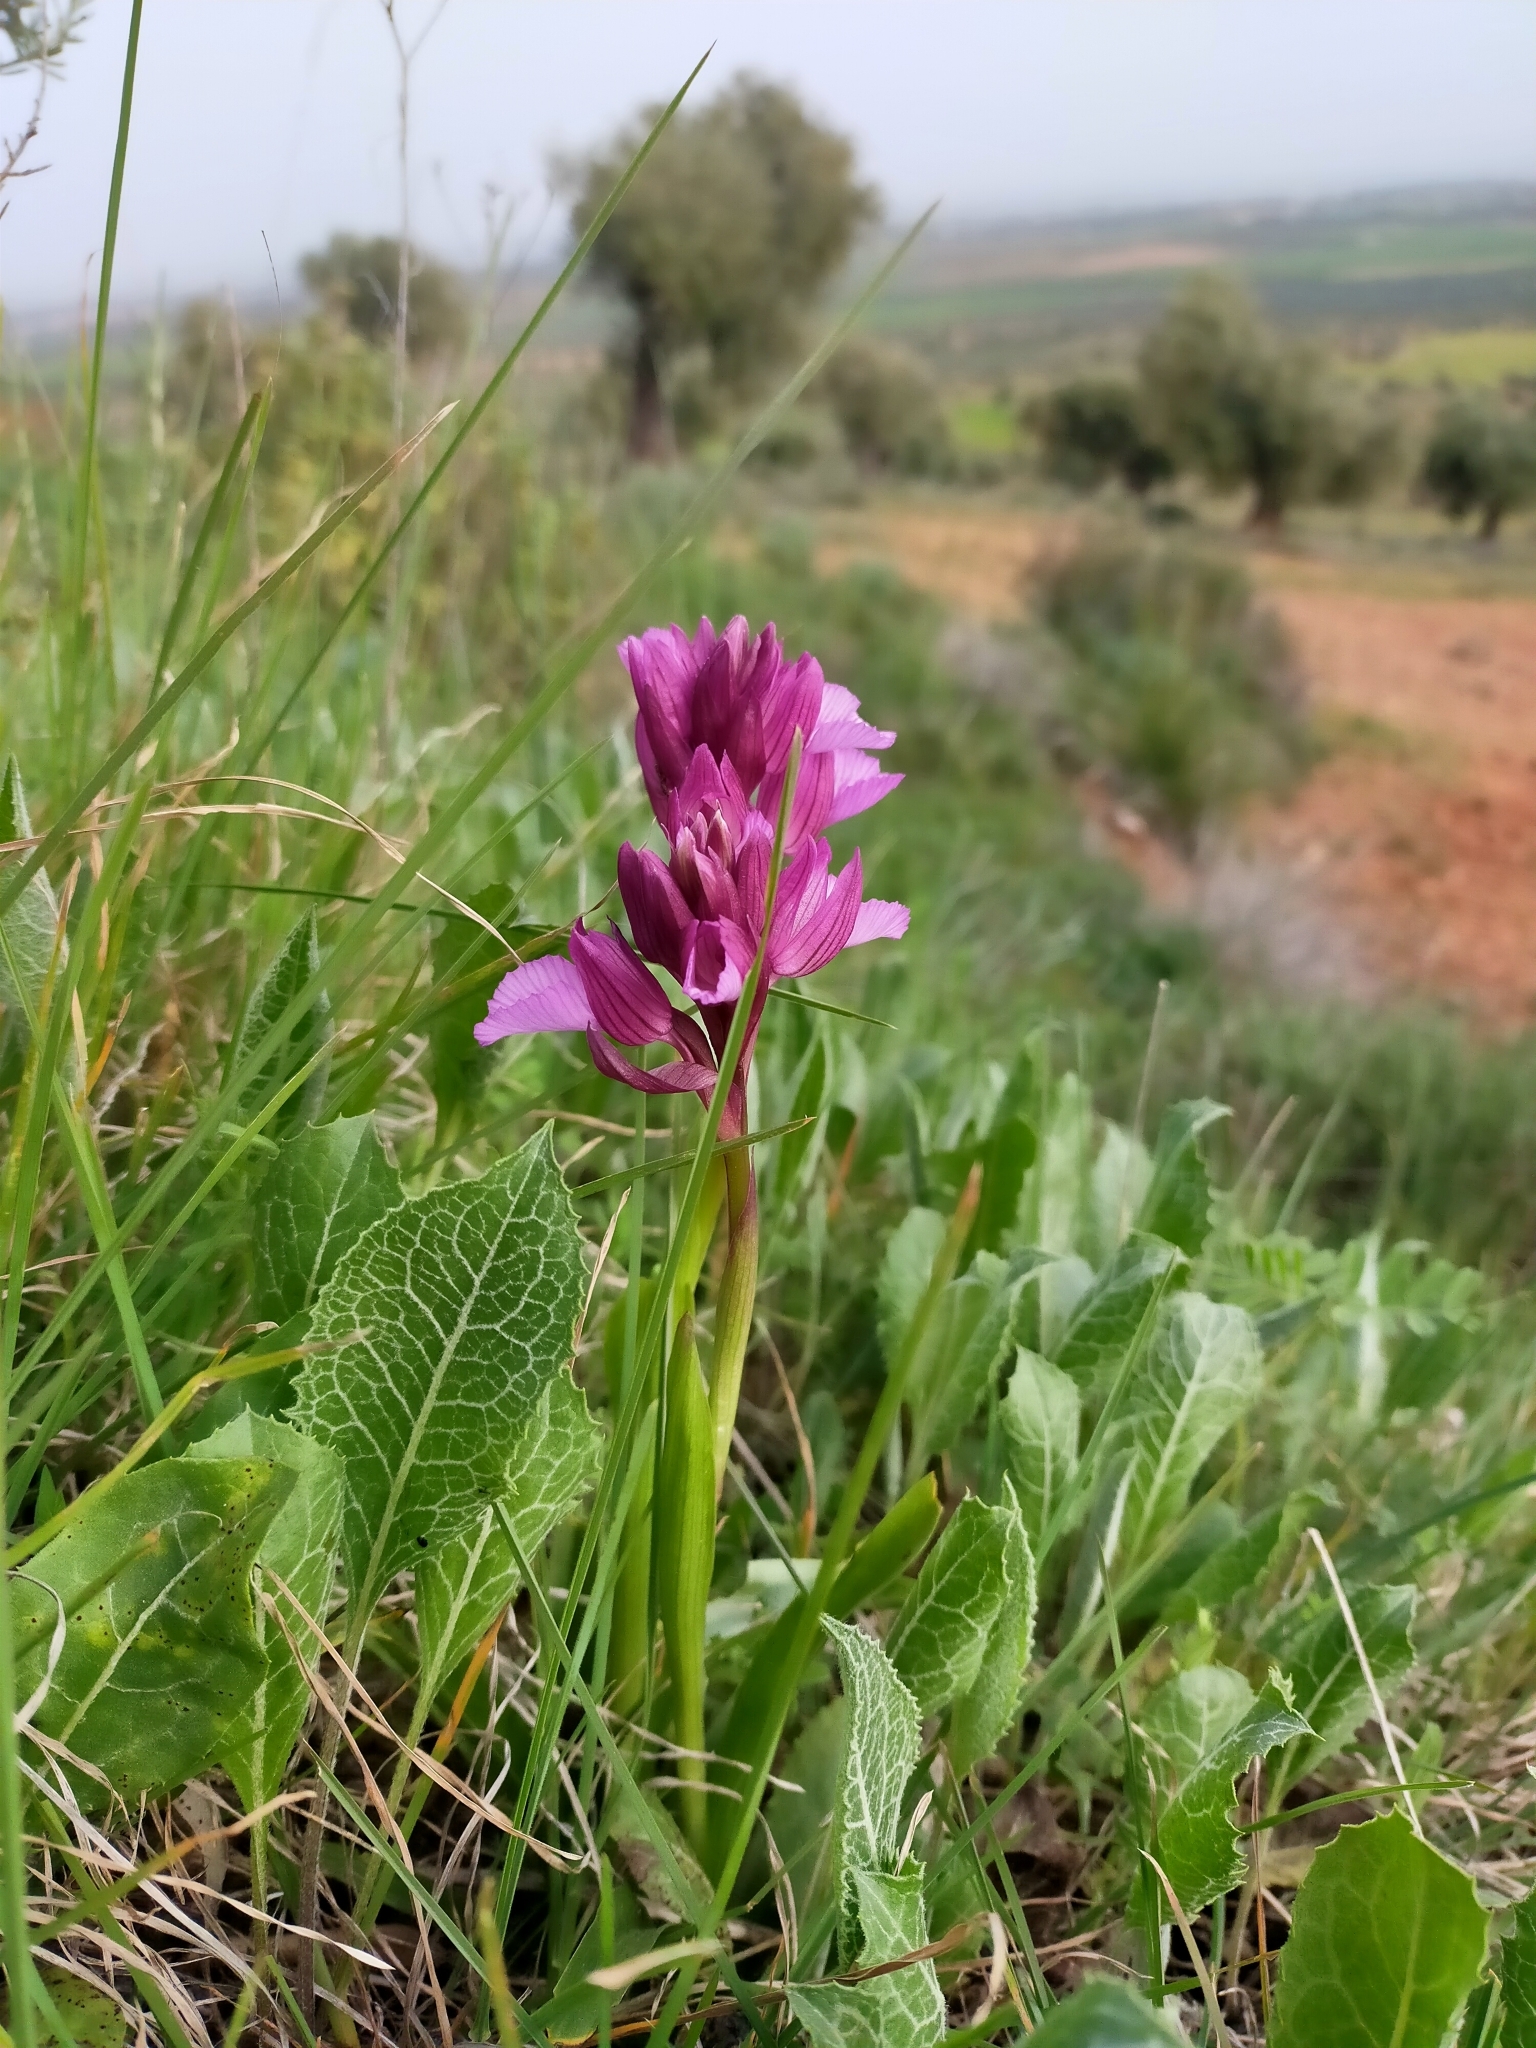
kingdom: Plantae
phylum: Tracheophyta
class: Liliopsida
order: Asparagales
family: Orchidaceae
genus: Anacamptis
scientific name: Anacamptis papilionacea
